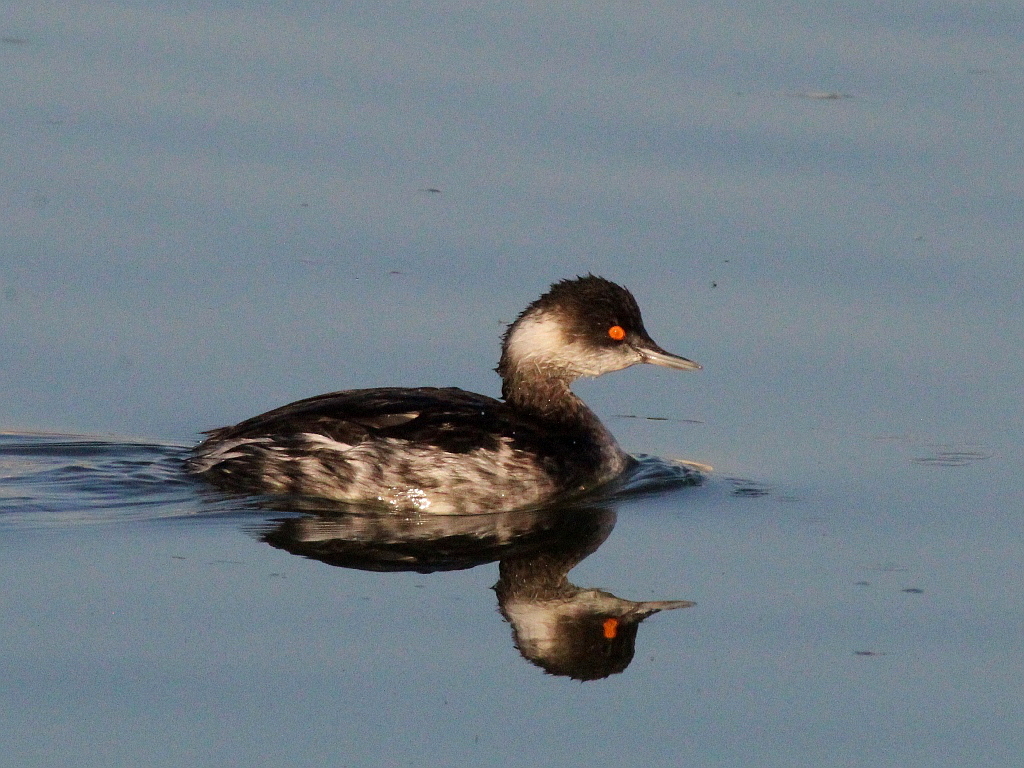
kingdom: Animalia
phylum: Chordata
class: Aves
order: Podicipediformes
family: Podicipedidae
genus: Podiceps
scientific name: Podiceps nigricollis
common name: Black-necked grebe
